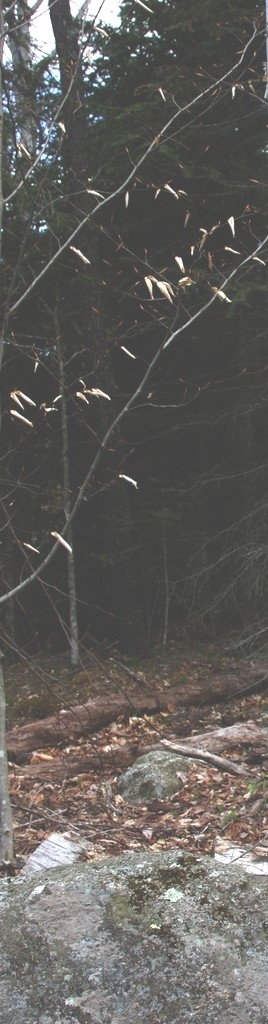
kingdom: Plantae
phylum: Tracheophyta
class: Magnoliopsida
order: Fagales
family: Fagaceae
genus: Fagus
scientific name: Fagus grandifolia
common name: American beech
